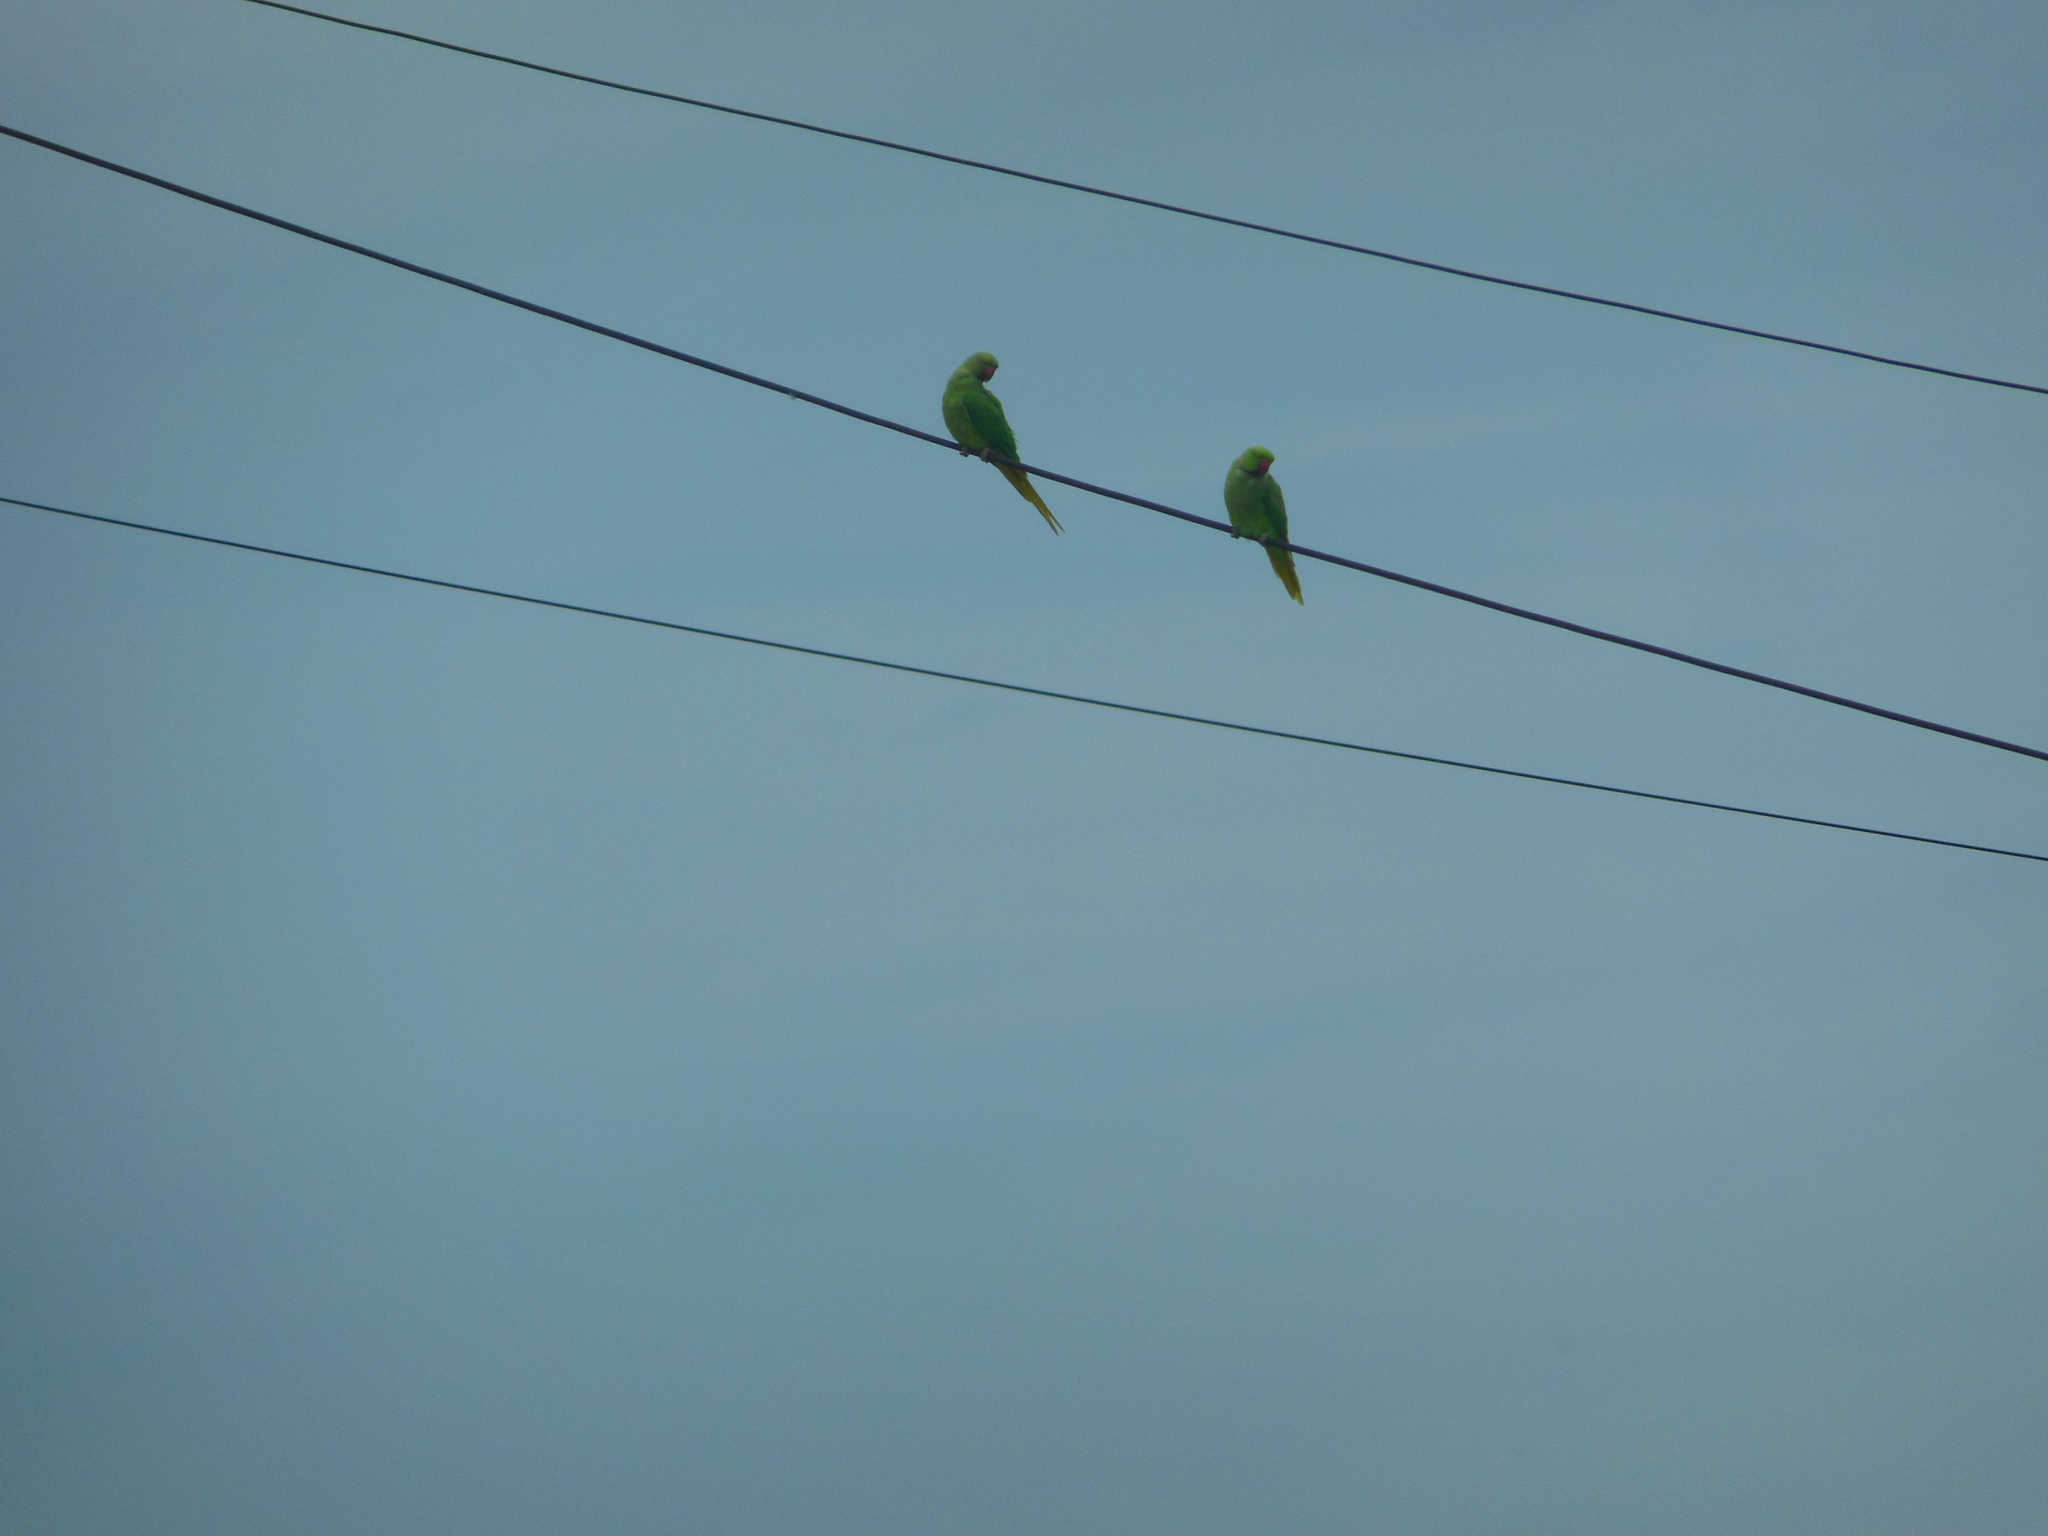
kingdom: Animalia
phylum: Chordata
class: Aves
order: Psittaciformes
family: Psittacidae
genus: Psittacula
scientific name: Psittacula krameri
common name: Rose-ringed parakeet
